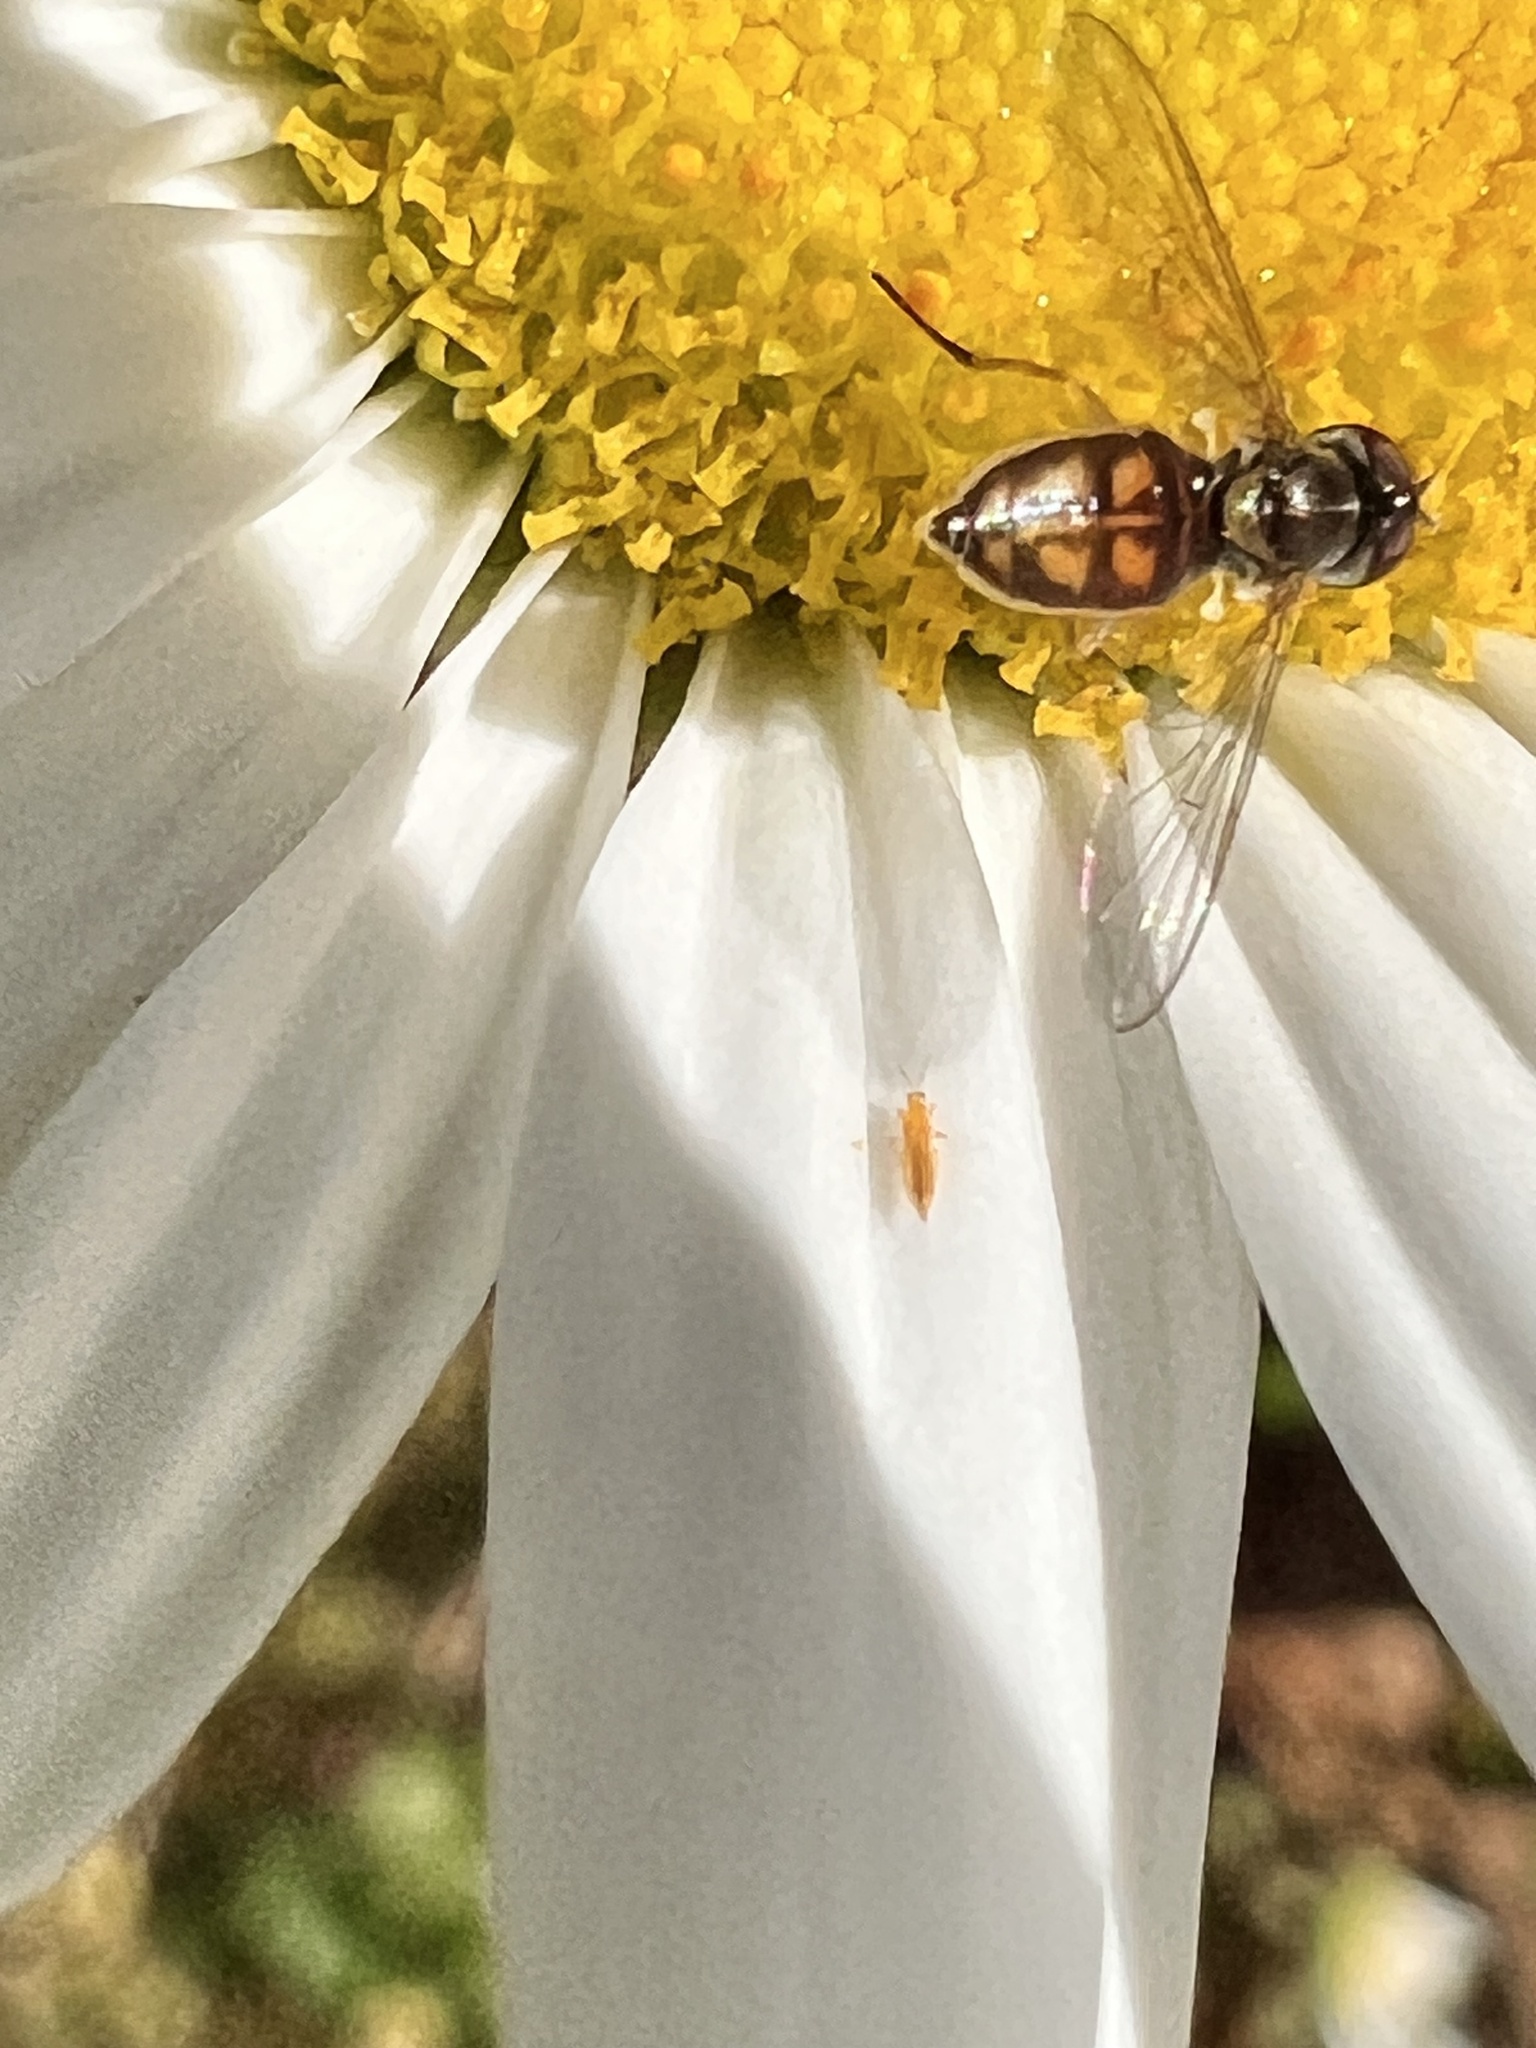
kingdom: Animalia
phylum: Arthropoda
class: Insecta
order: Diptera
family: Syrphidae
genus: Toxomerus
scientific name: Toxomerus marginatus
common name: Syrphid fly
